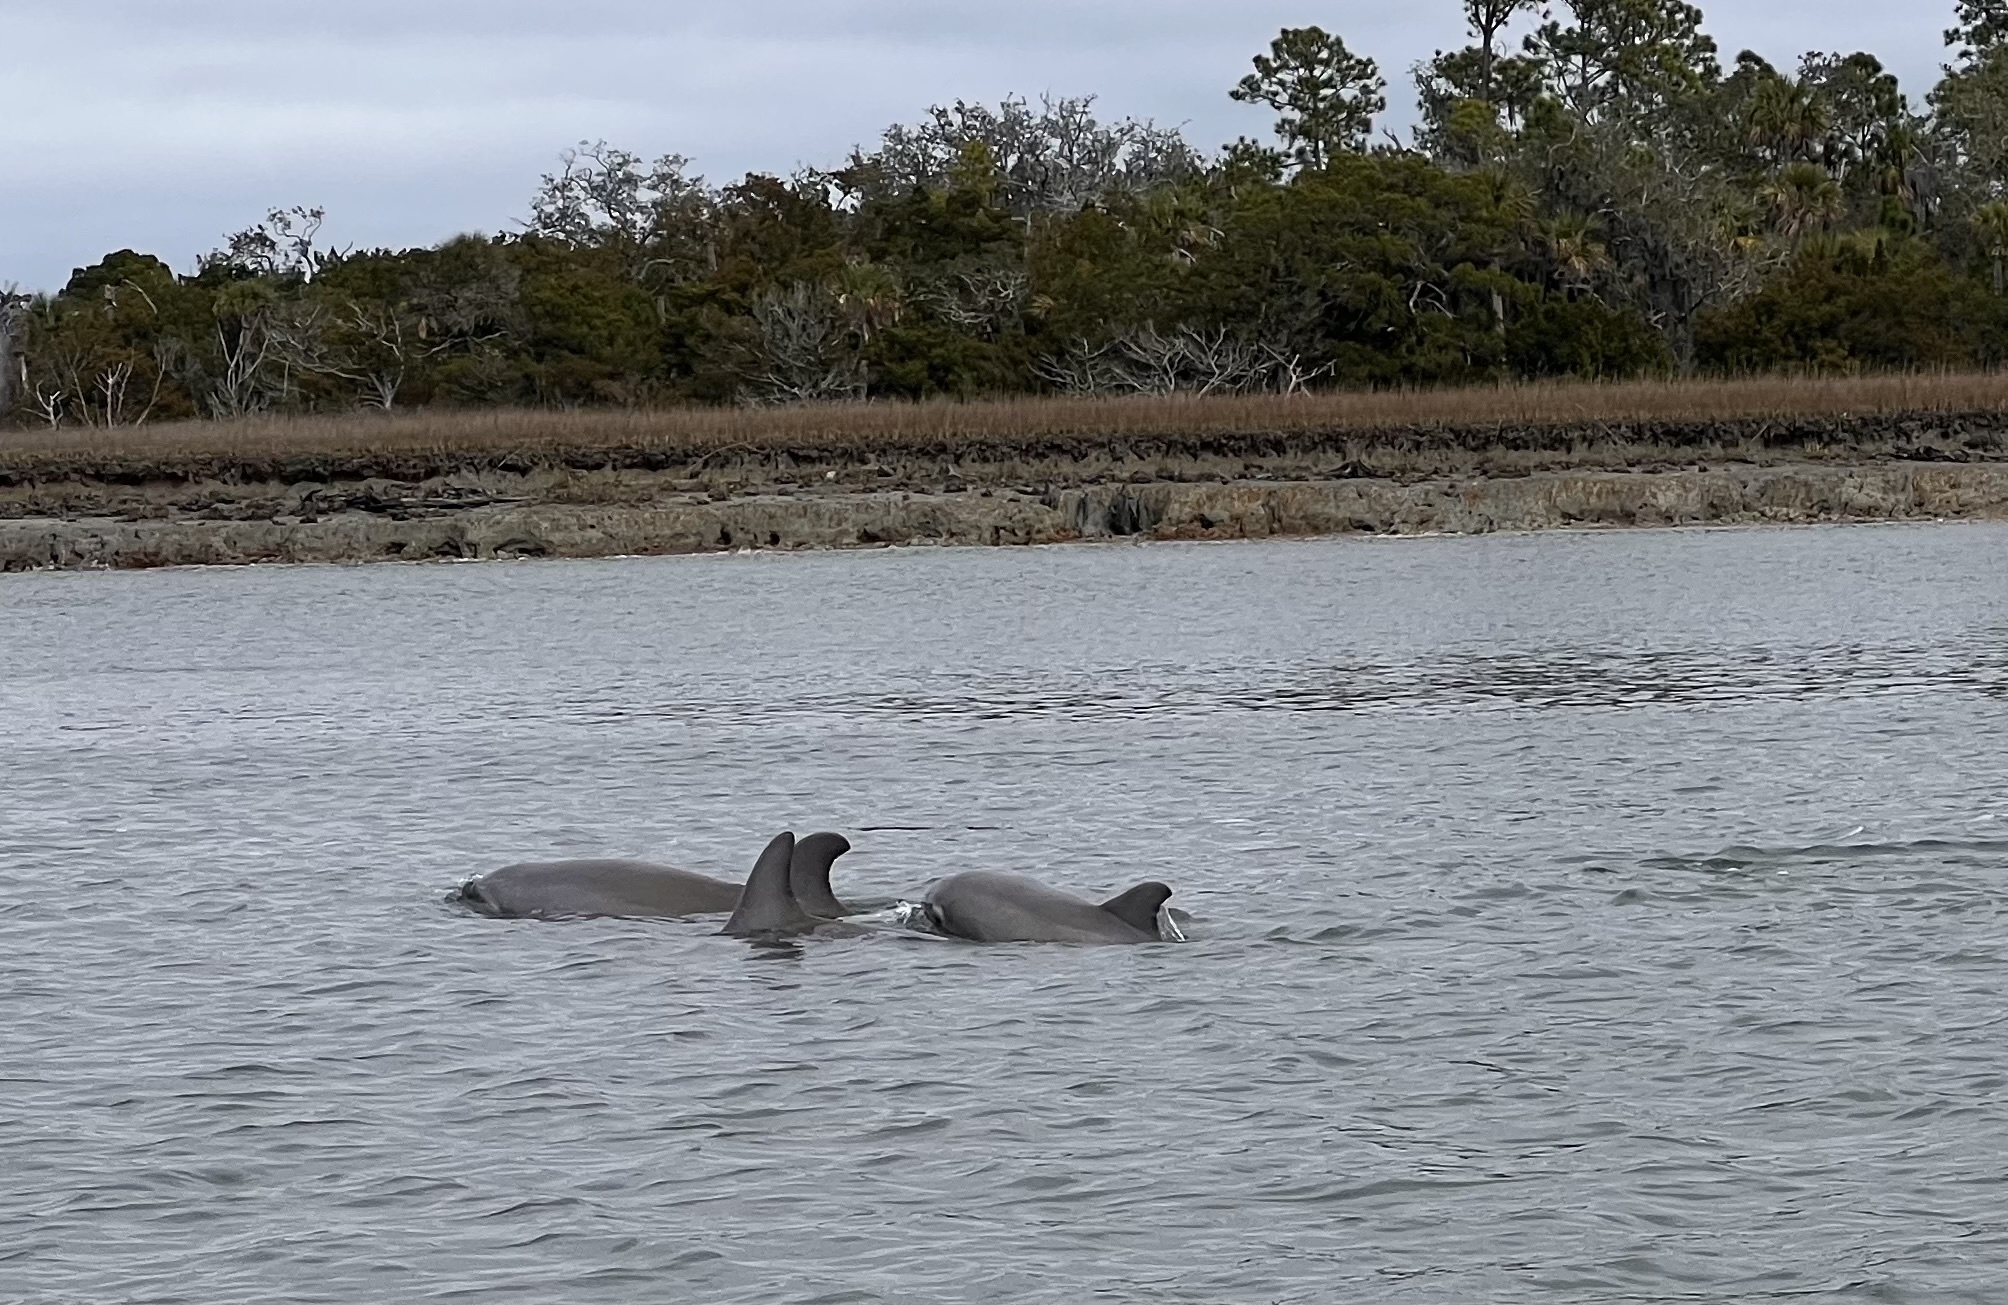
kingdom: Animalia
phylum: Chordata
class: Mammalia
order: Cetacea
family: Delphinidae
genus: Tursiops
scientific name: Tursiops truncatus
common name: Bottlenose dolphin
